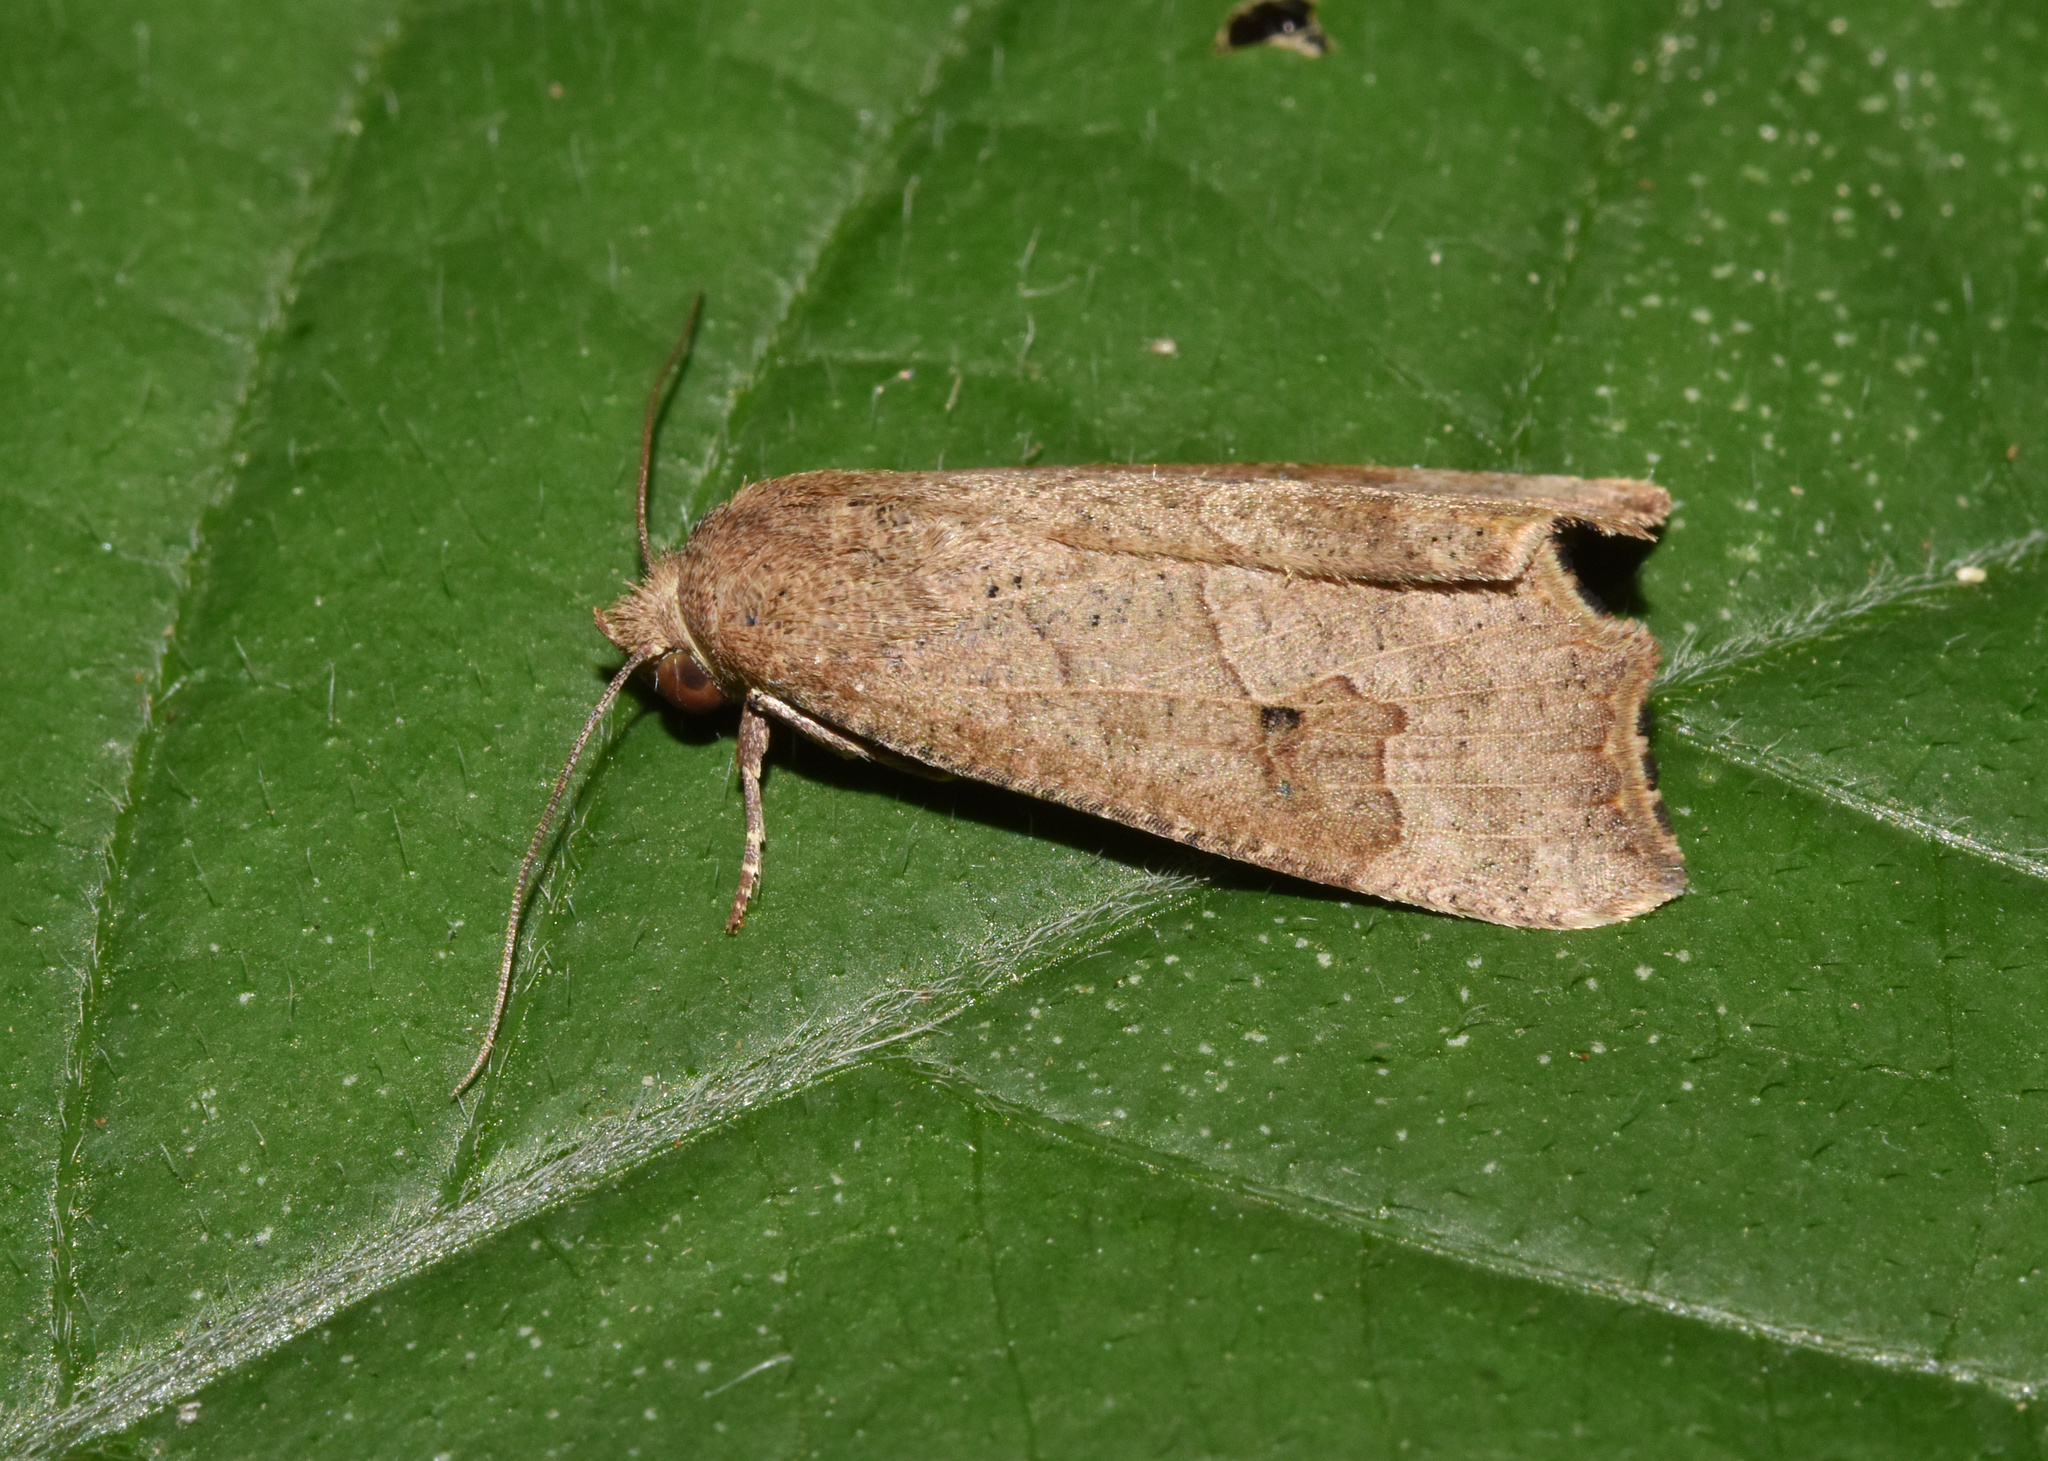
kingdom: Animalia
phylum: Arthropoda
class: Insecta
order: Lepidoptera
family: Erebidae
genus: Anomis
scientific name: Anomis sabulifera
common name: Angled gem
